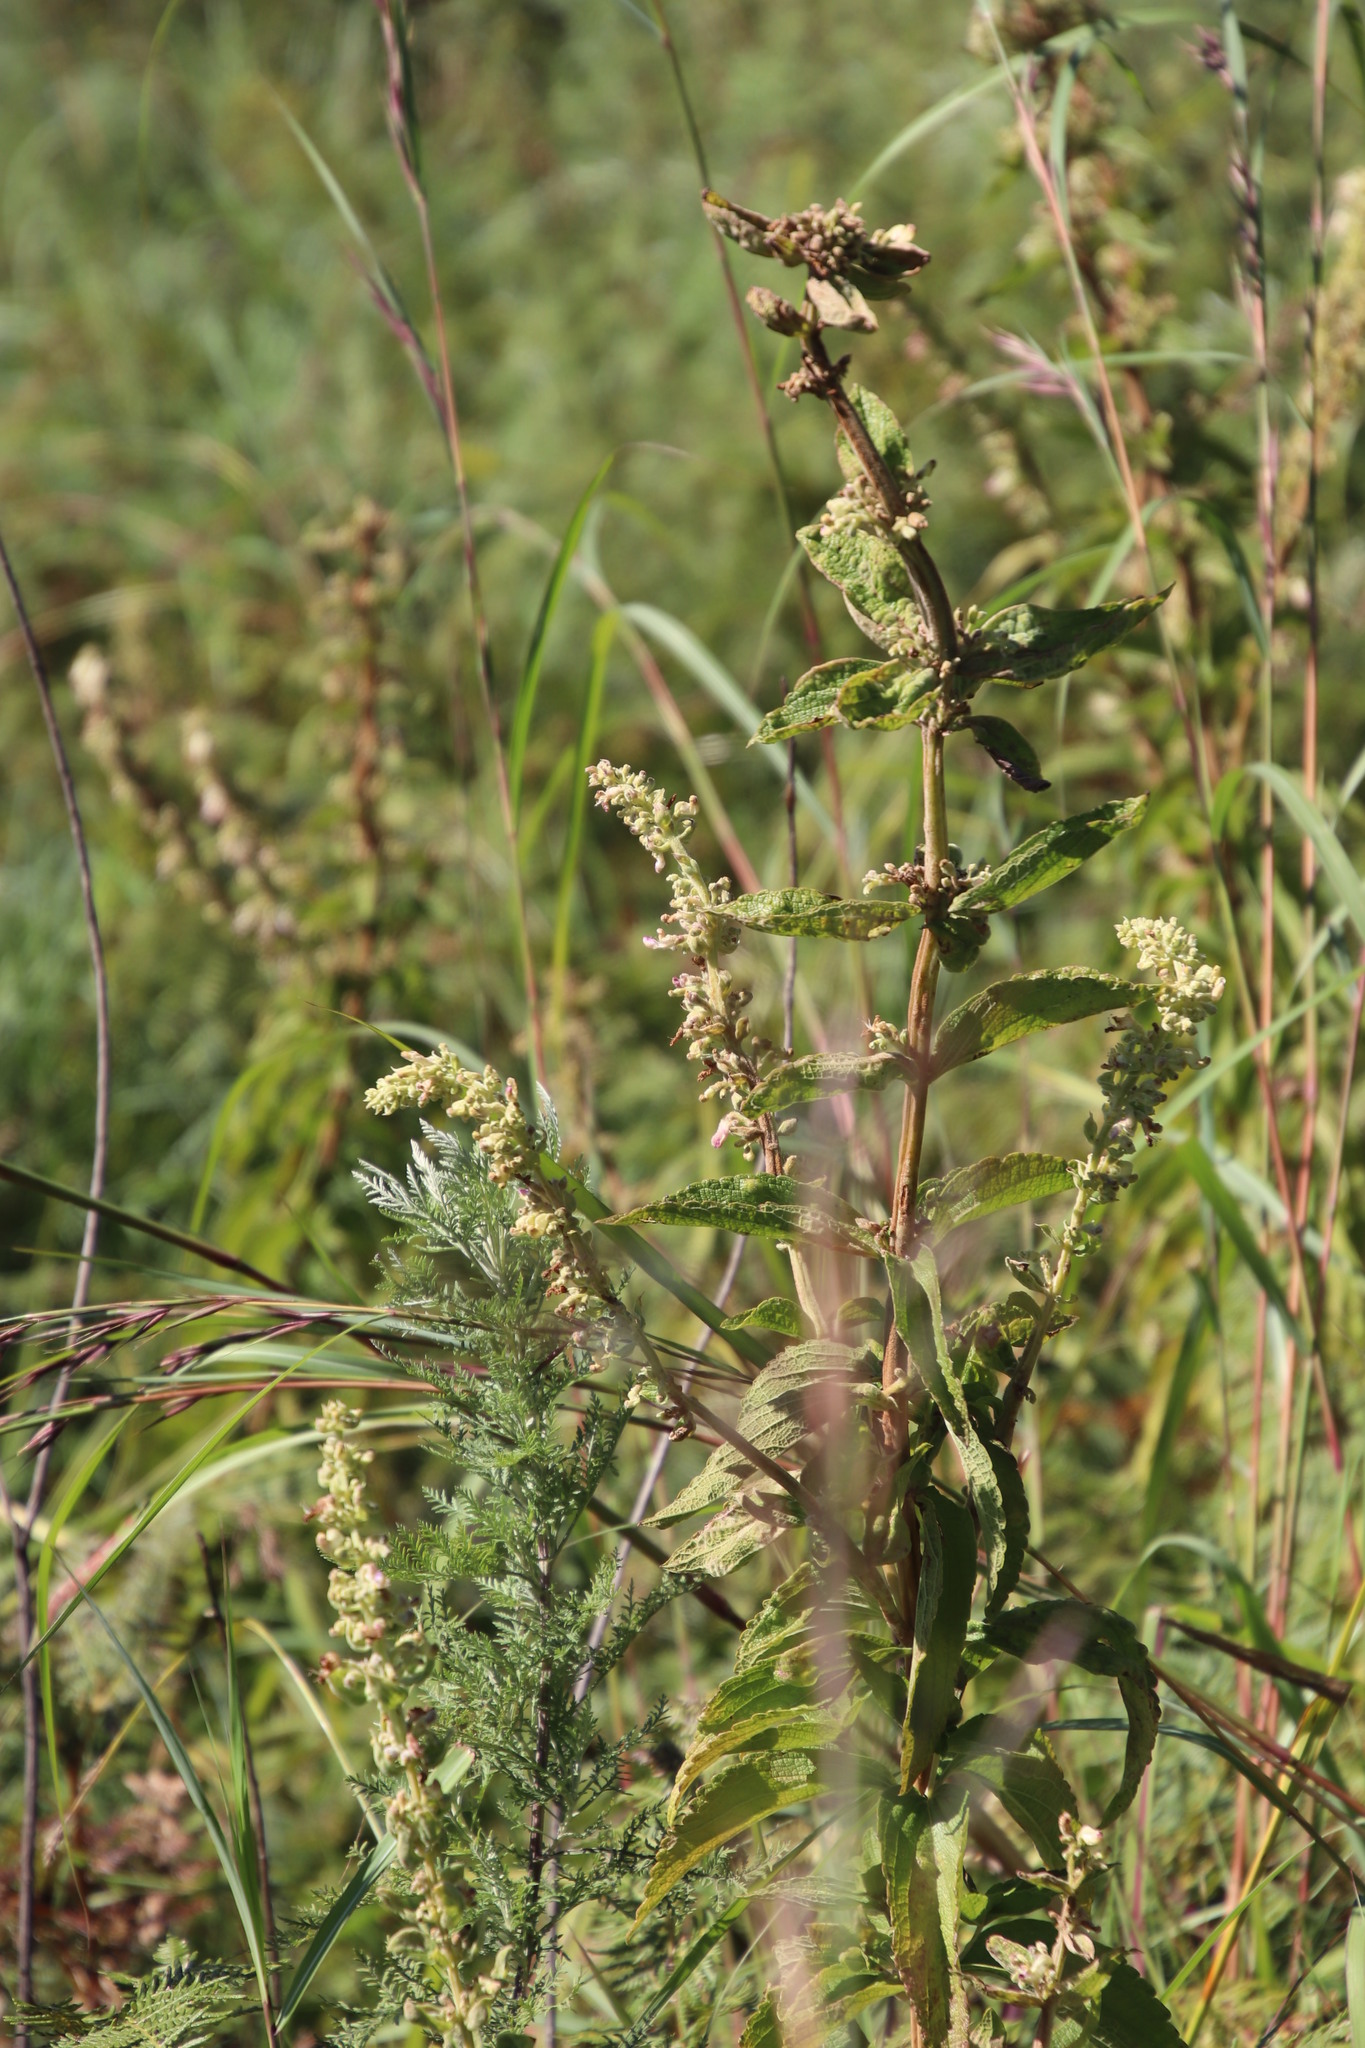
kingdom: Plantae
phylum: Tracheophyta
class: Magnoliopsida
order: Lamiales
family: Lamiaceae
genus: Coleus
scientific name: Coleus calycinus
